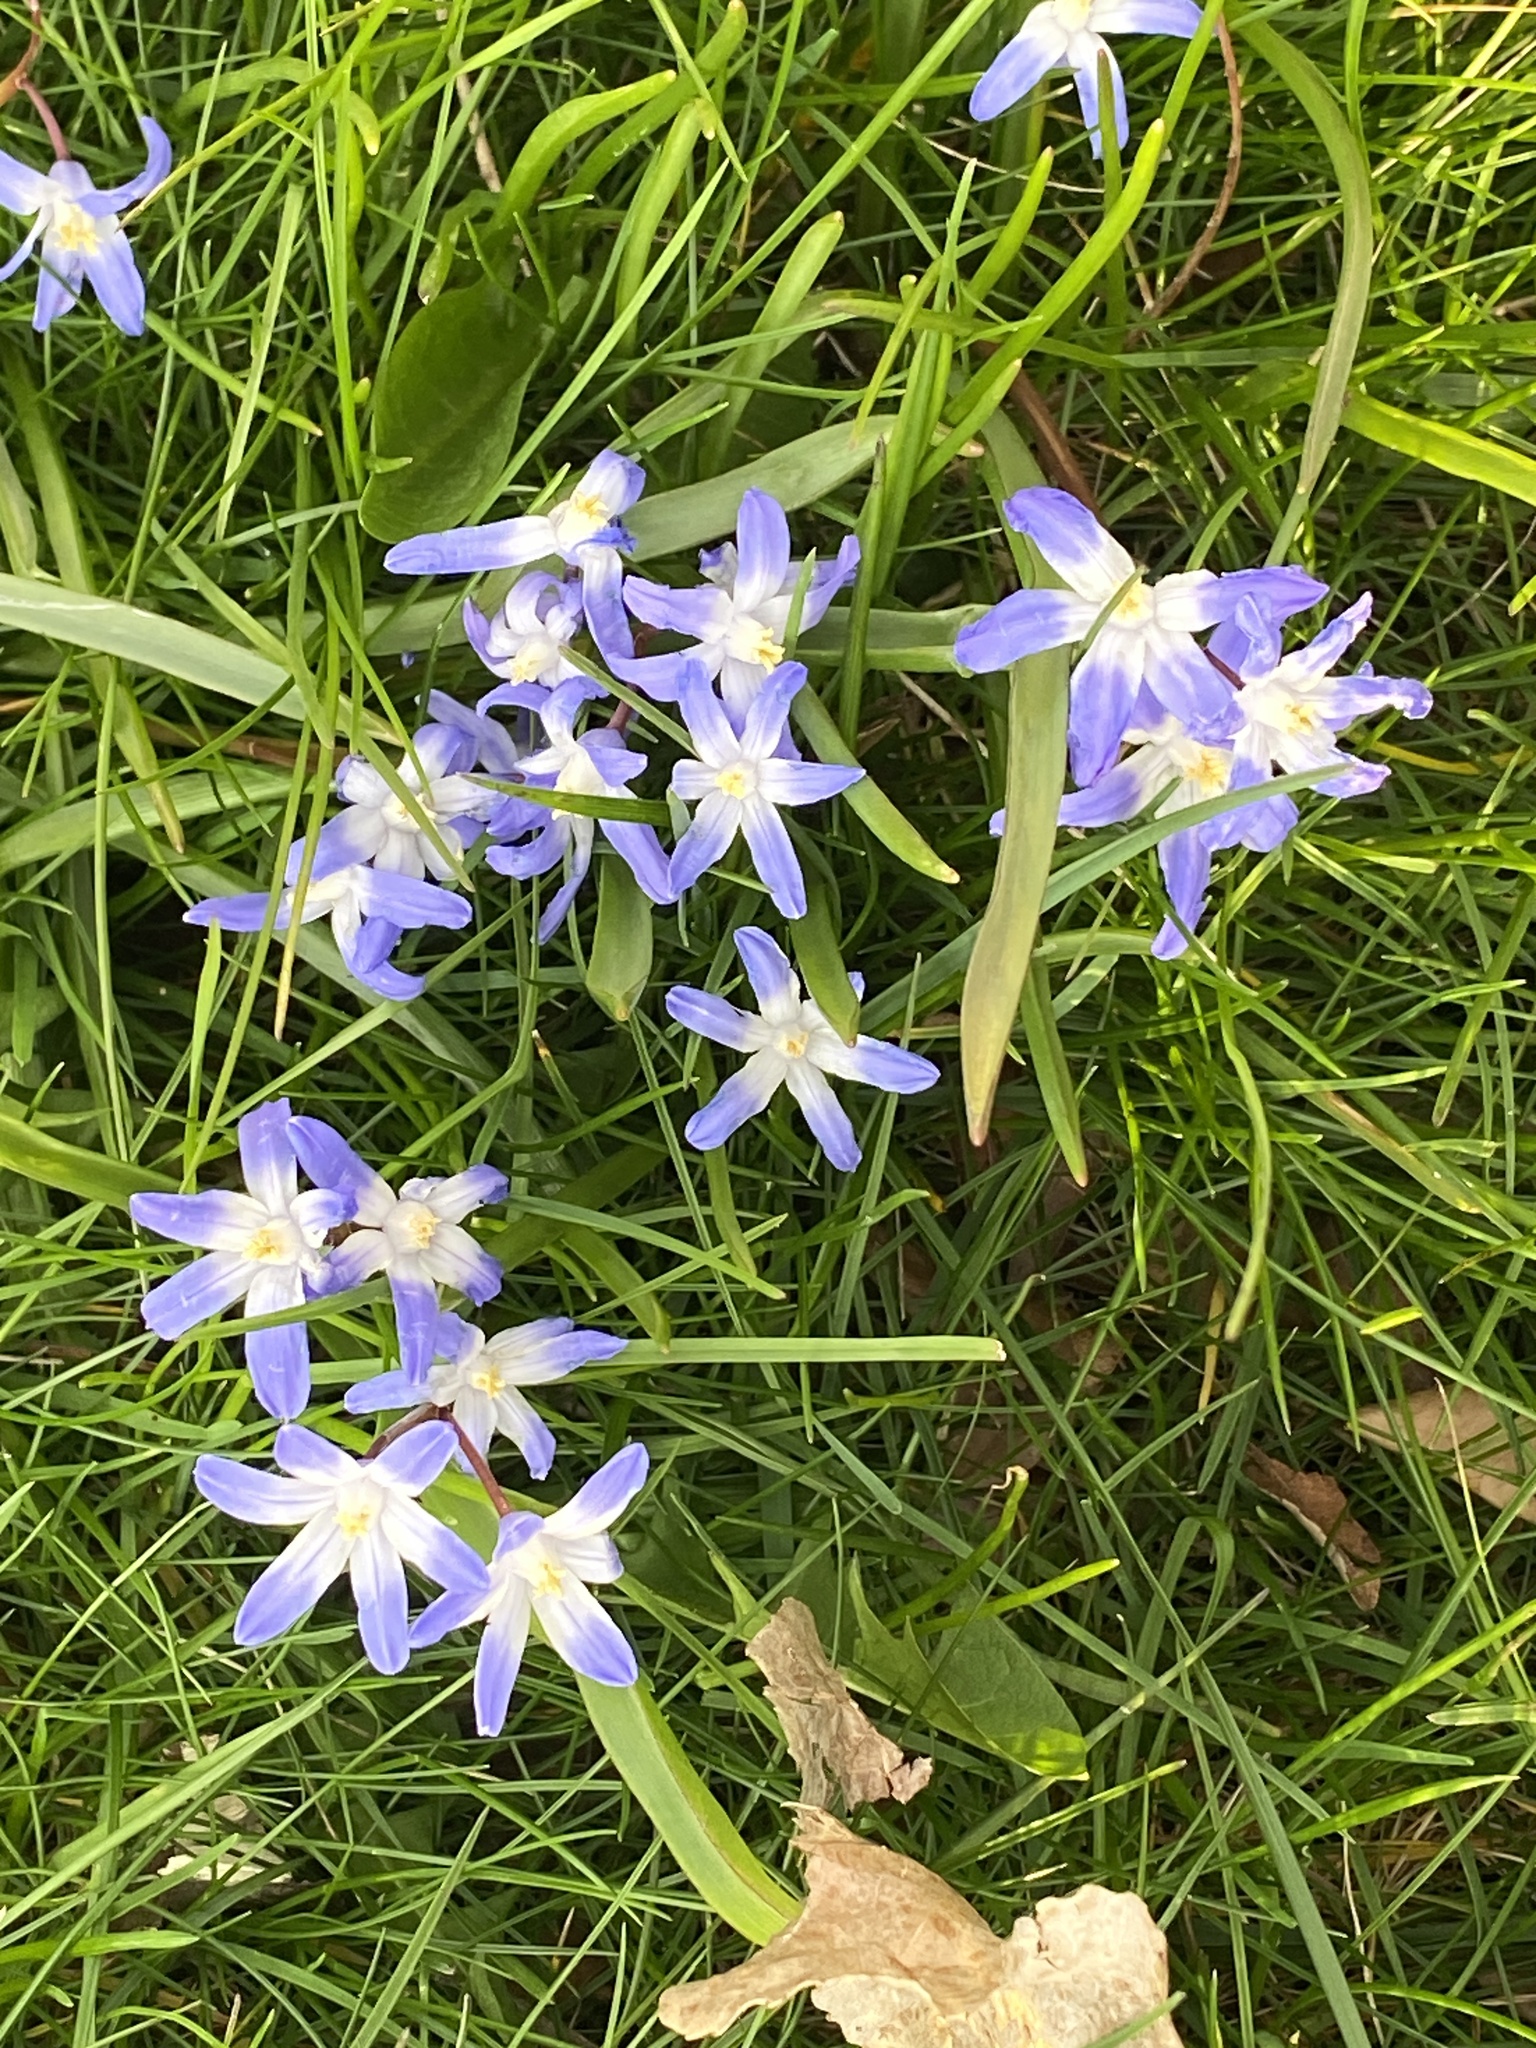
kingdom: Plantae
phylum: Tracheophyta
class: Liliopsida
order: Asparagales
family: Asparagaceae
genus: Scilla
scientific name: Scilla luciliae
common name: Boissier's glory-of-the-snow
